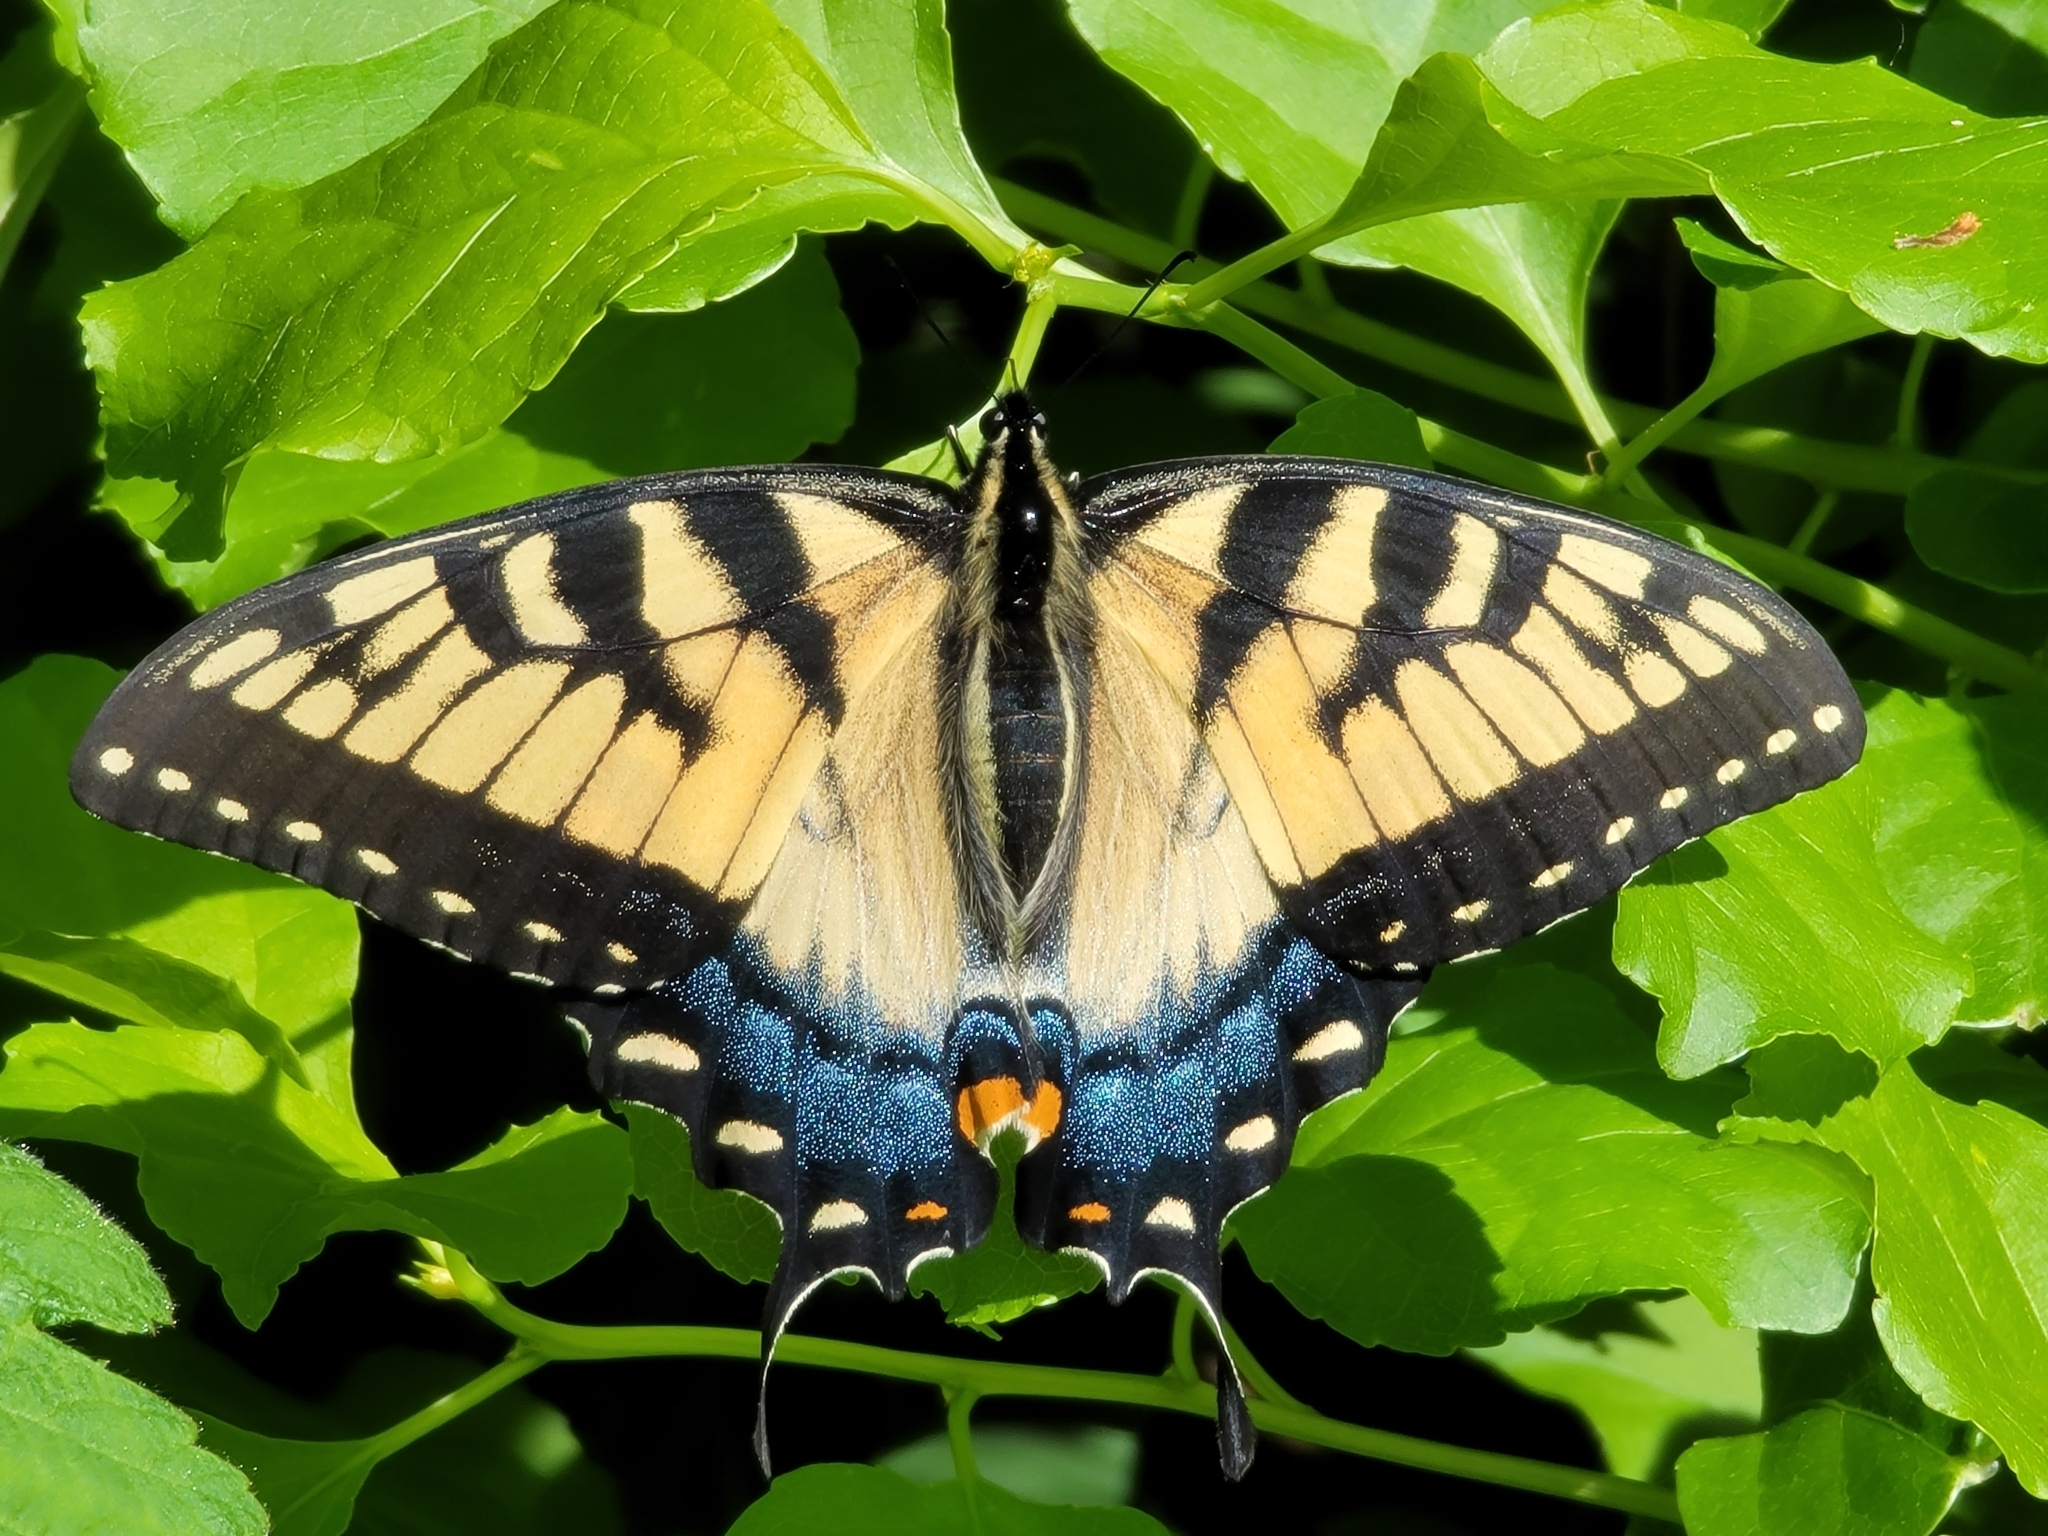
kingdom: Animalia
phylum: Arthropoda
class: Insecta
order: Lepidoptera
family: Papilionidae
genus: Papilio
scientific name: Papilio glaucus
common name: Tiger swallowtail
